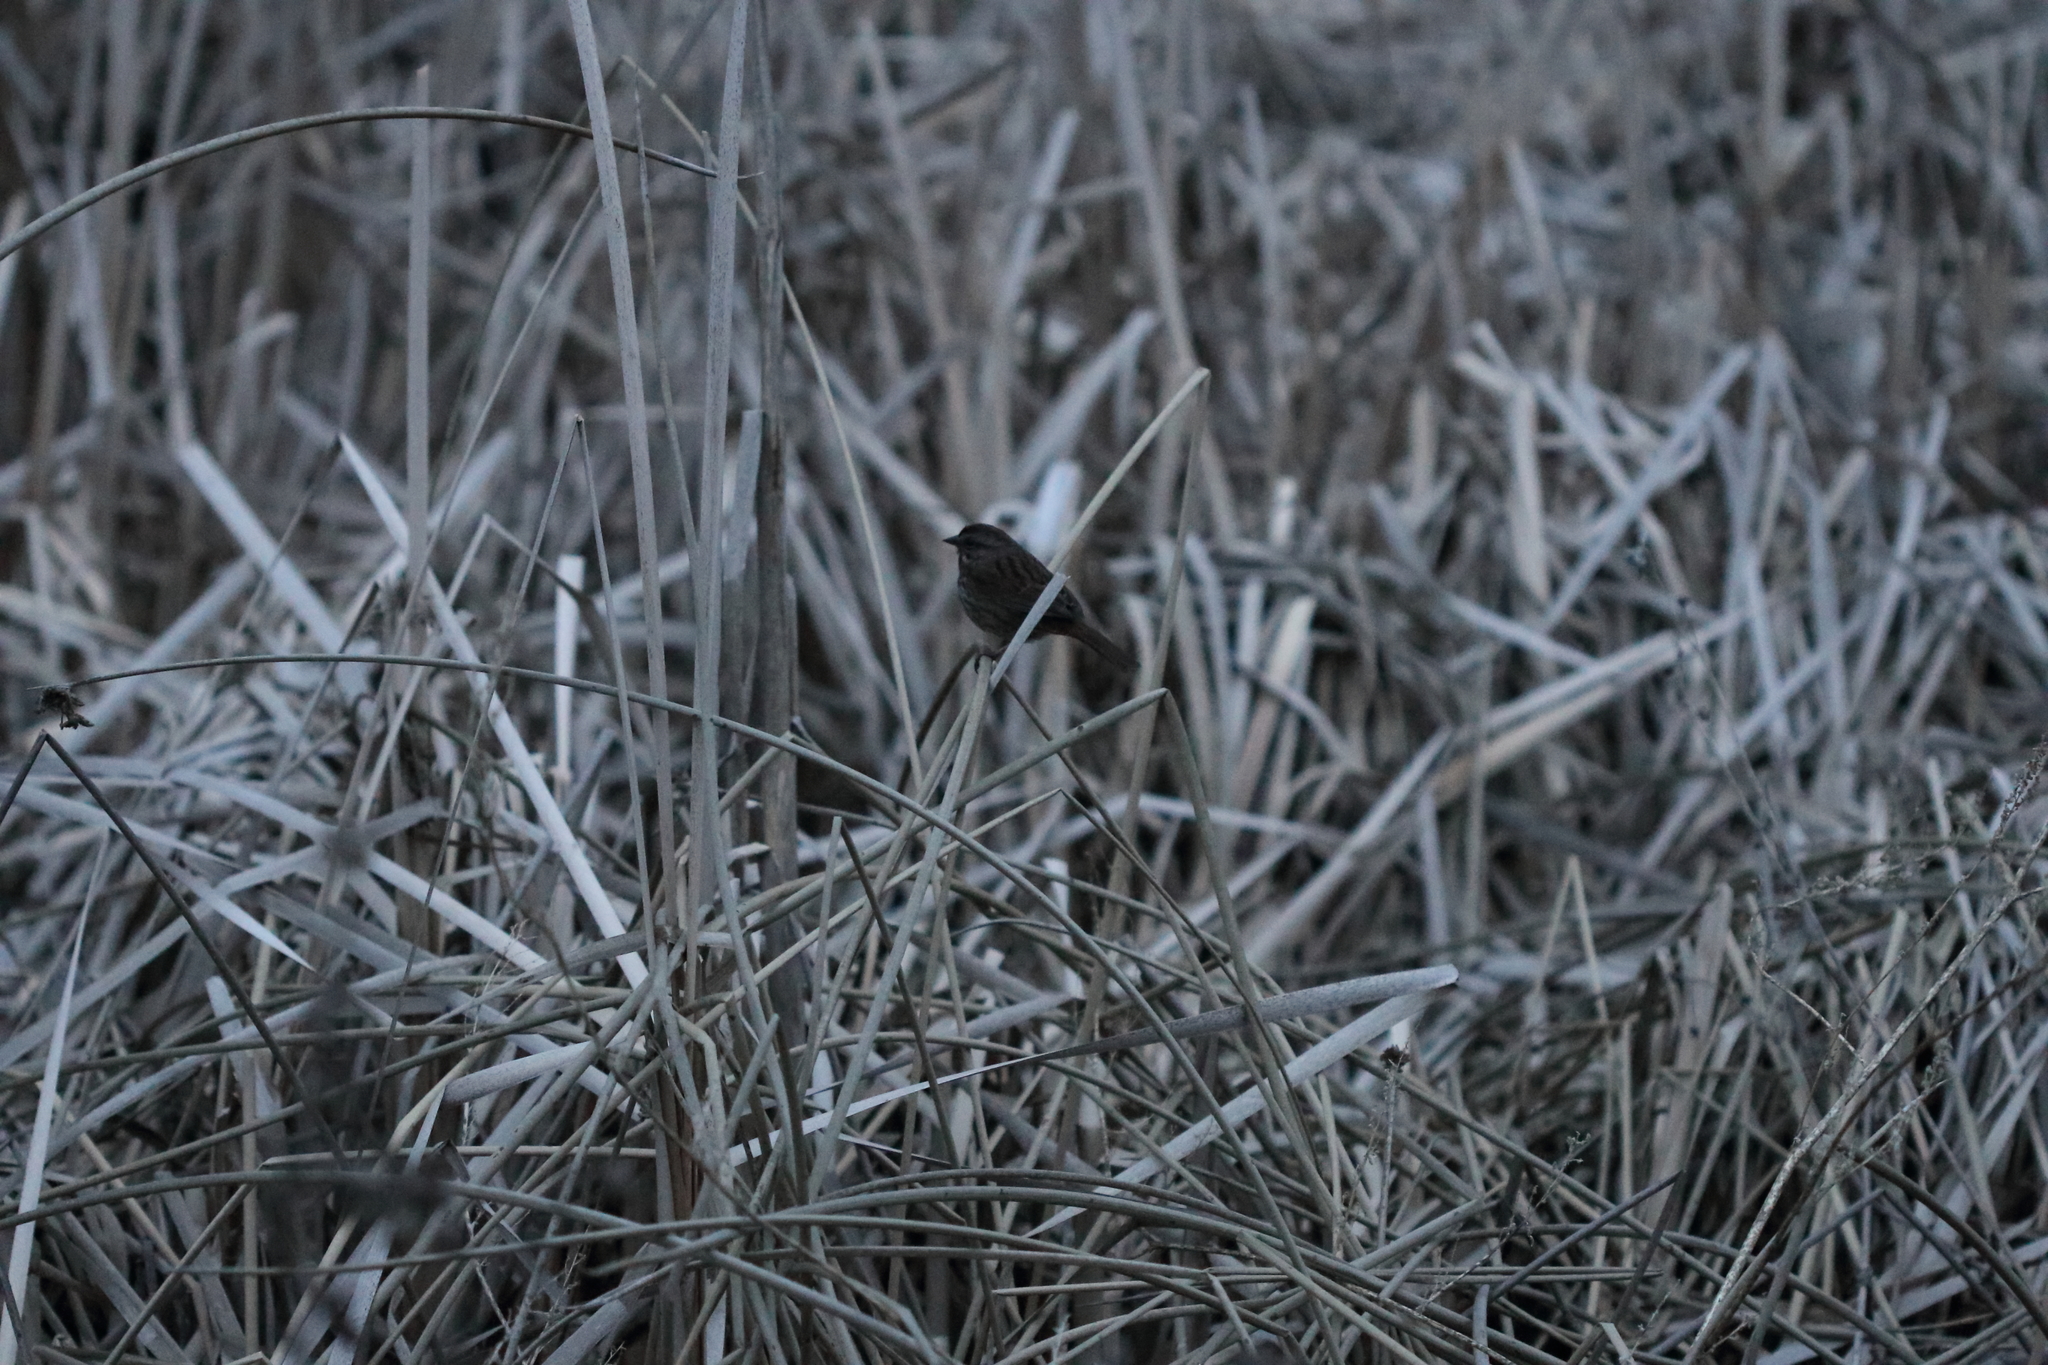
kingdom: Animalia
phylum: Chordata
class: Aves
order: Passeriformes
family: Passerellidae
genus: Melospiza
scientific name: Melospiza melodia
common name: Song sparrow
